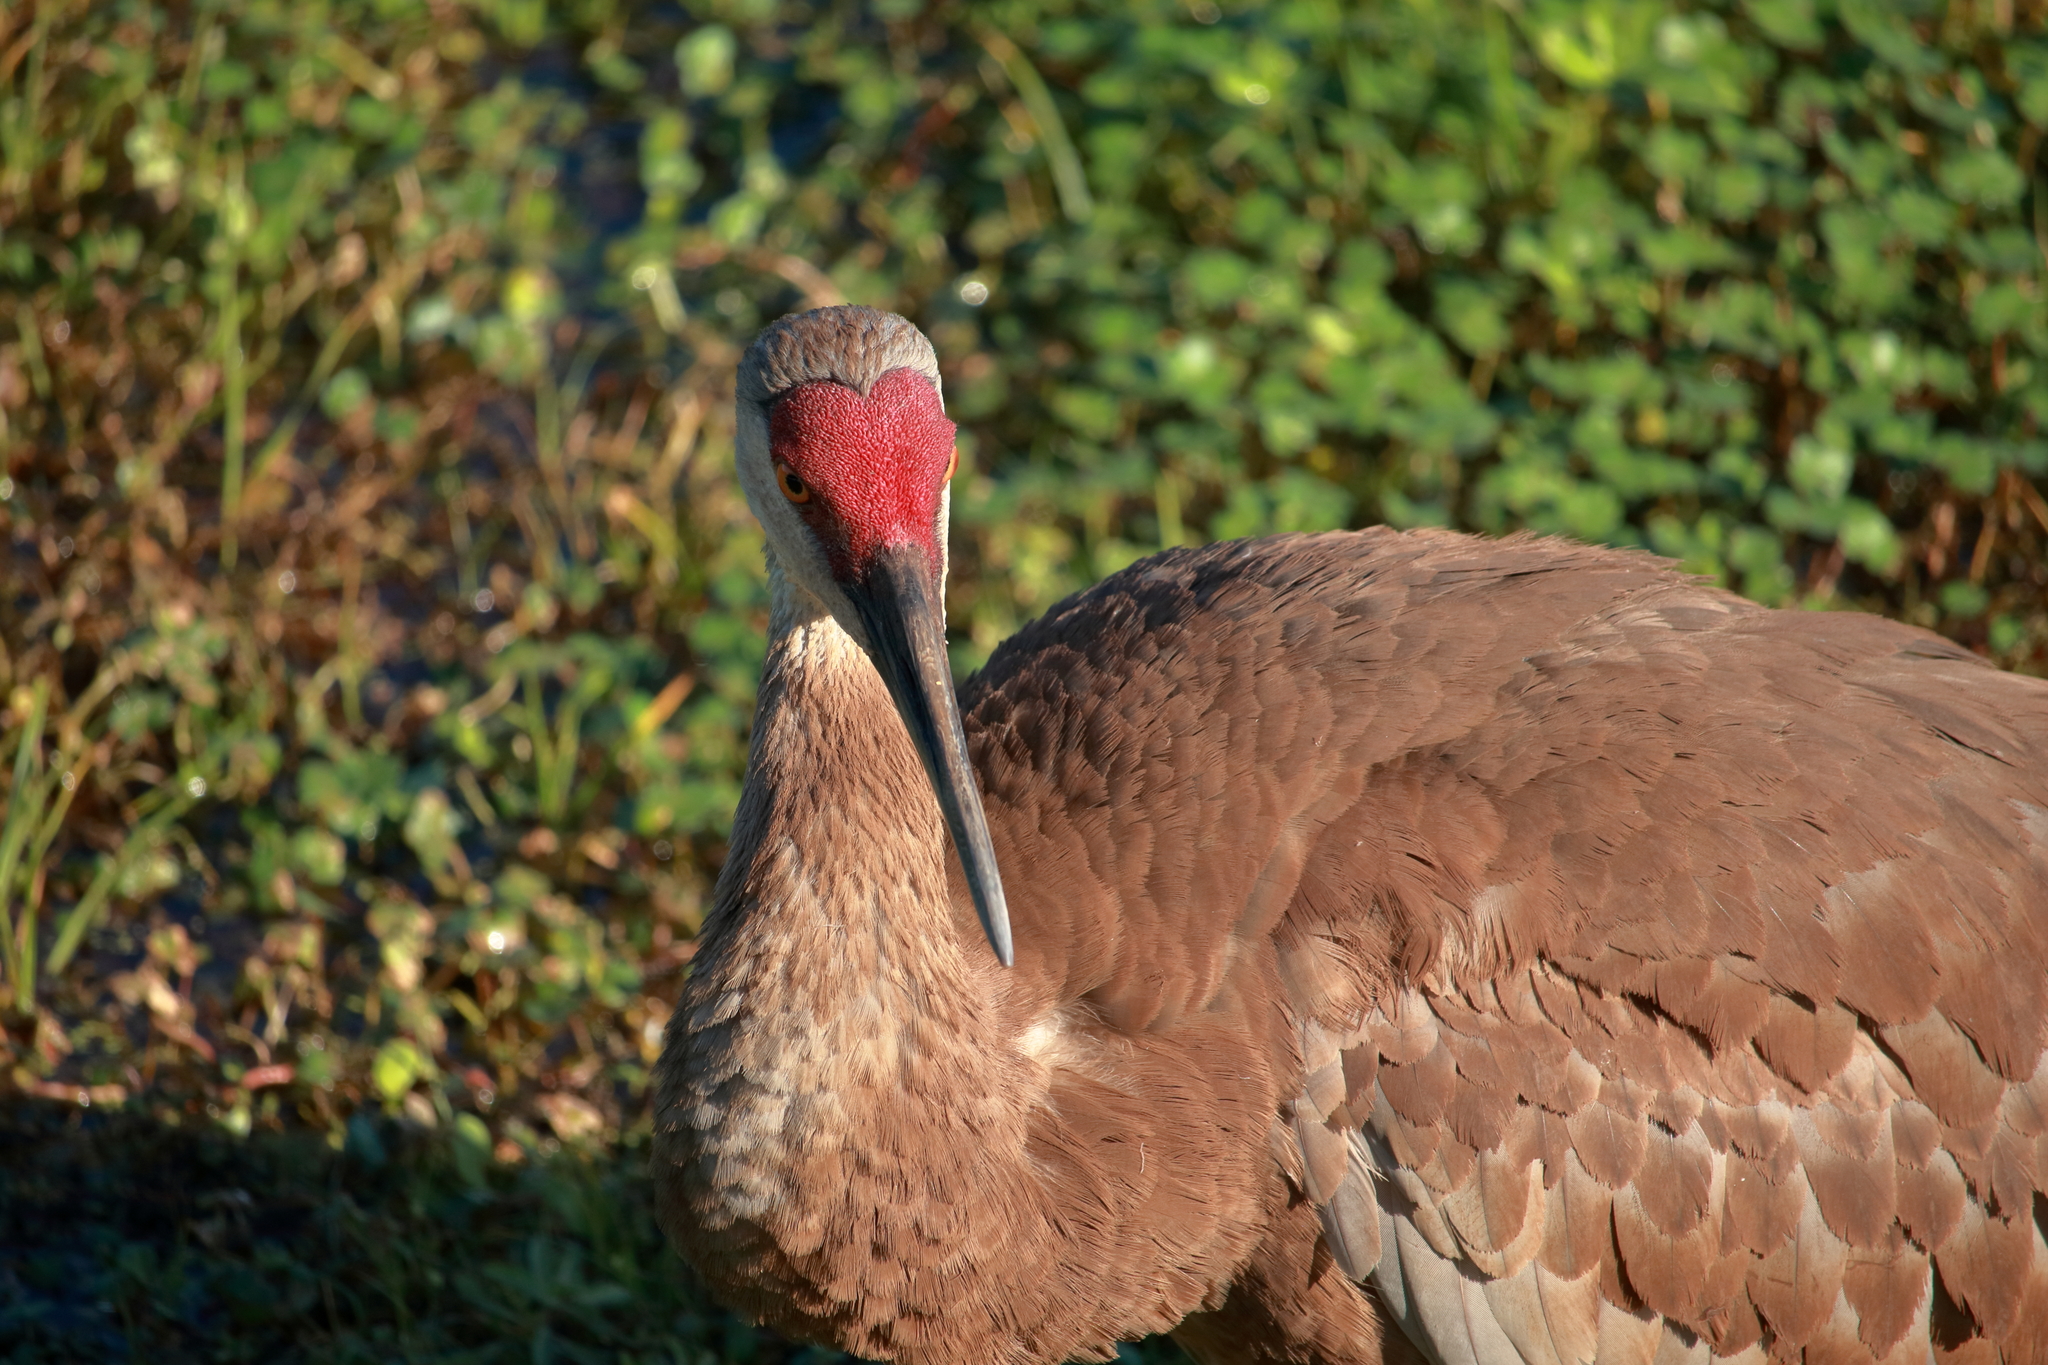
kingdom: Animalia
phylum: Chordata
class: Aves
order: Gruiformes
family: Gruidae
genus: Grus
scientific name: Grus canadensis
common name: Sandhill crane
